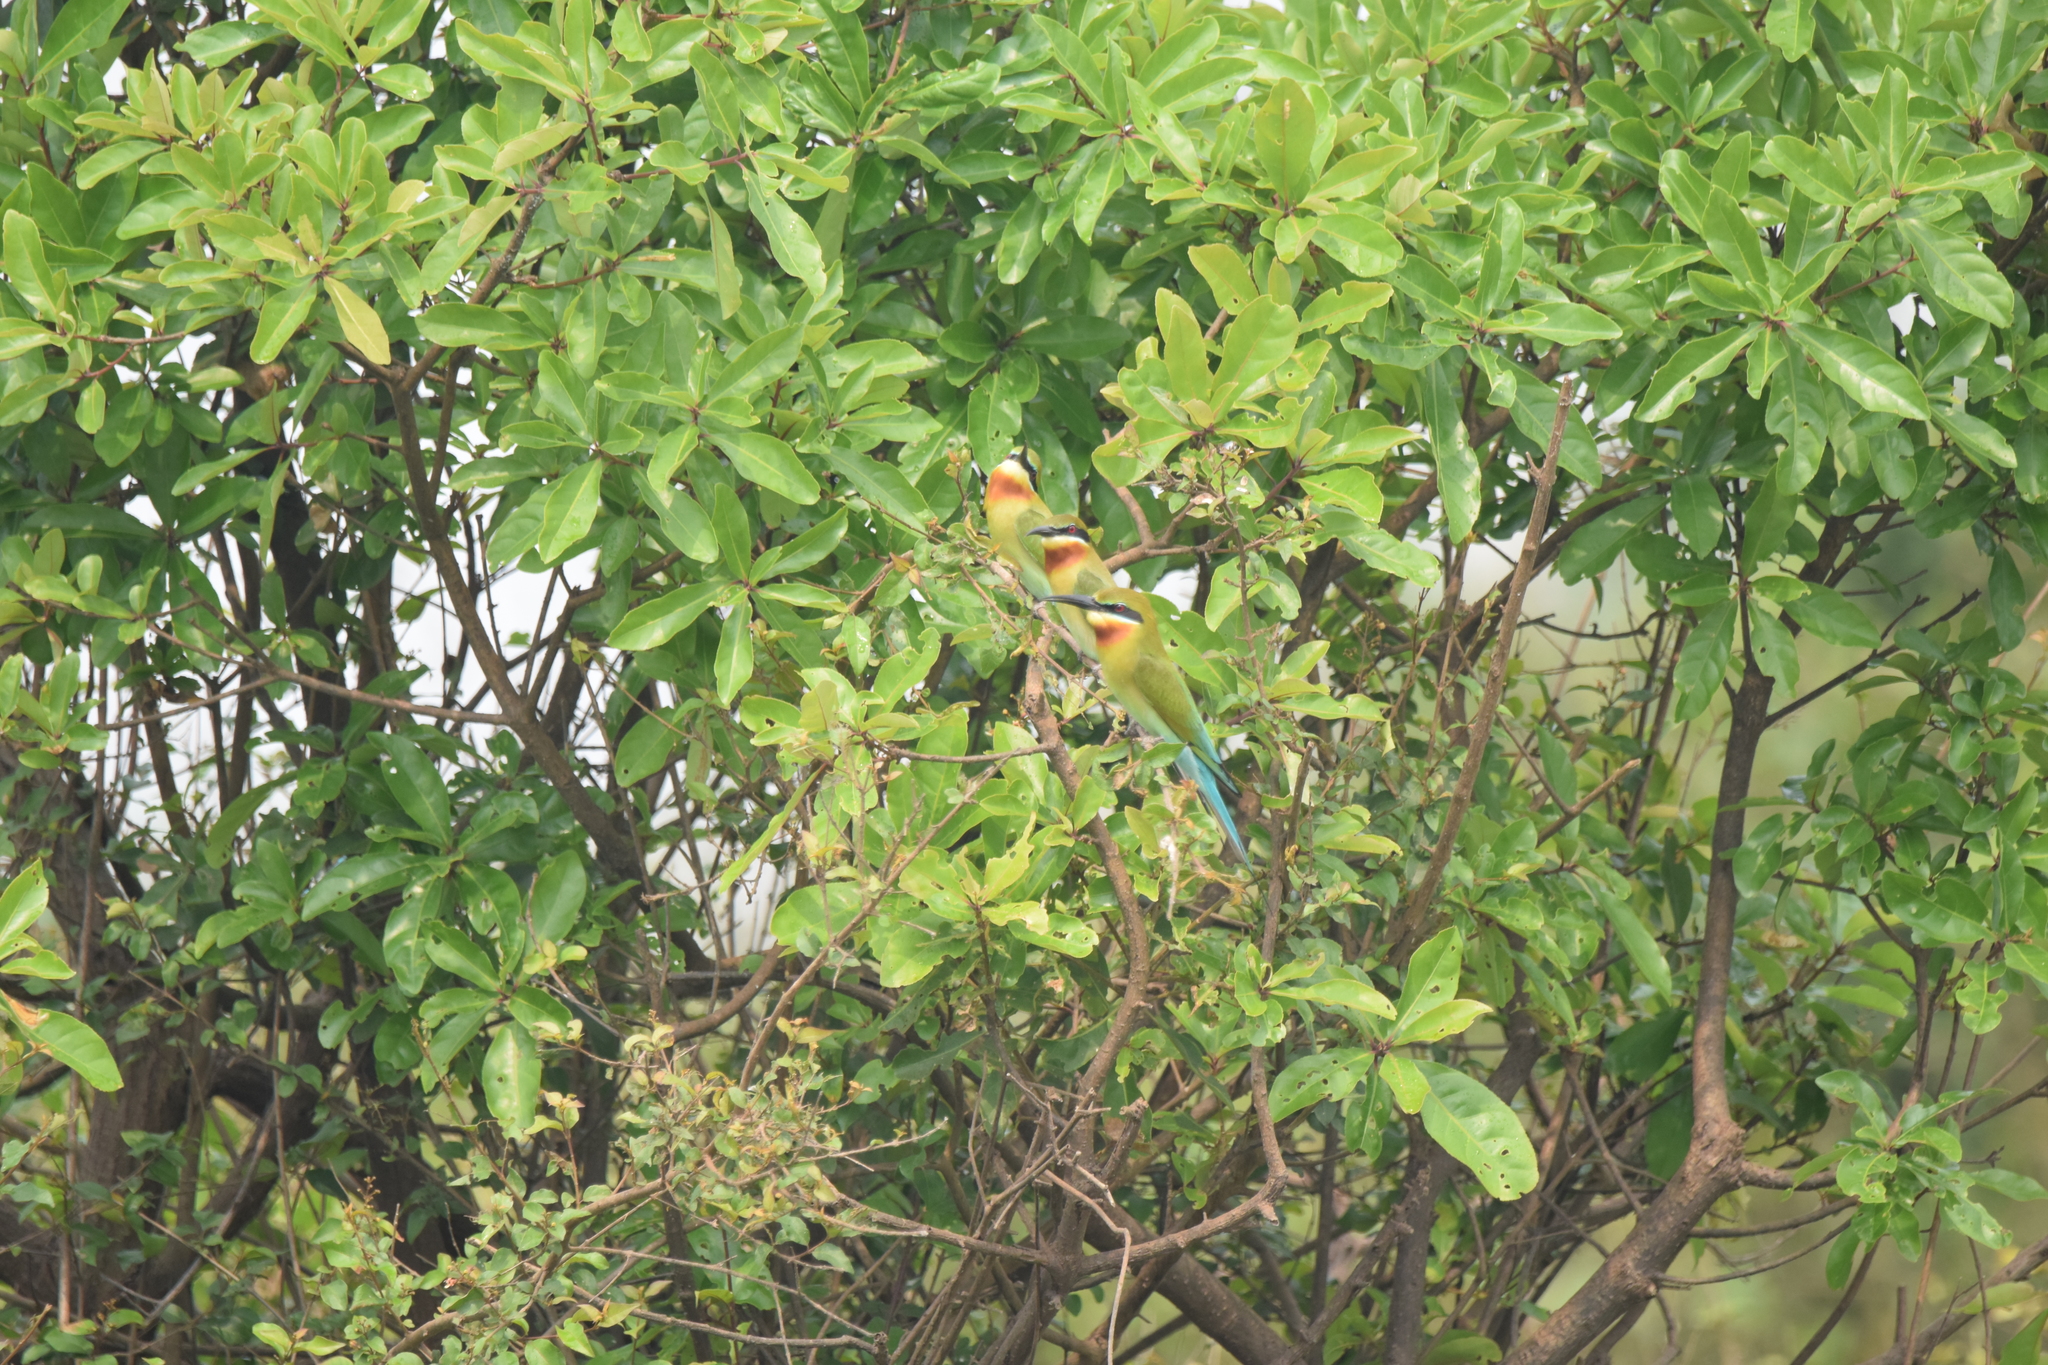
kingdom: Animalia
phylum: Chordata
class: Aves
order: Coraciiformes
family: Meropidae
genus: Merops
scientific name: Merops philippinus
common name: Blue-tailed bee-eater
